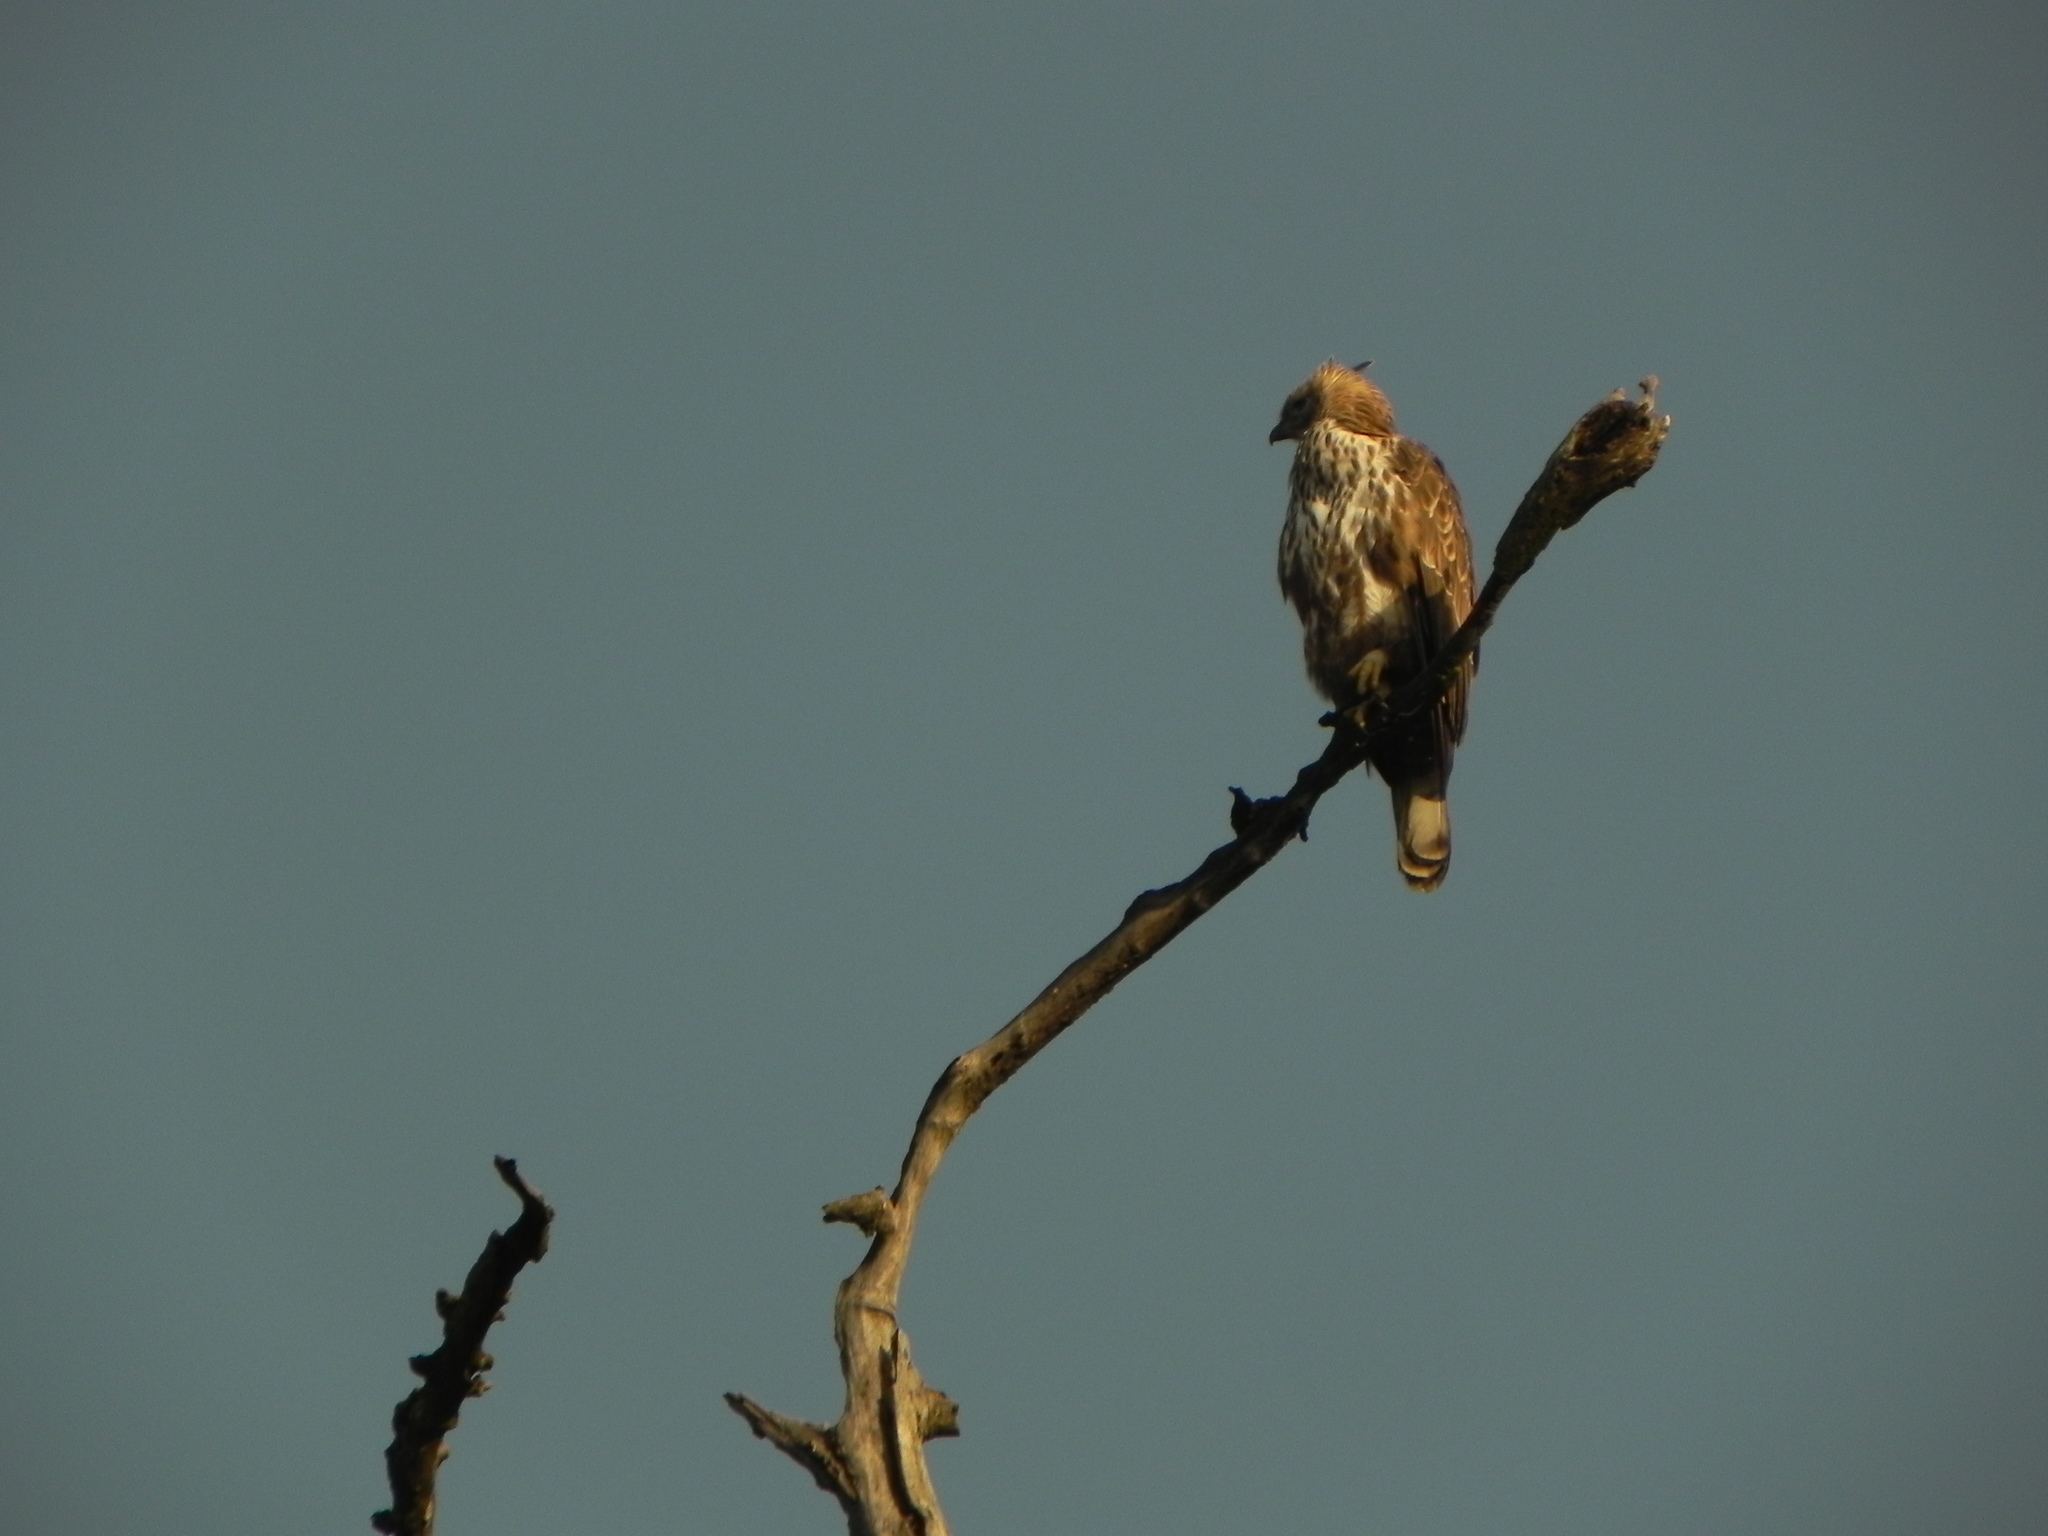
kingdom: Animalia
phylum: Chordata
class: Aves
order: Accipitriformes
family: Accipitridae
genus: Nisaetus
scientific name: Nisaetus cirrhatus
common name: Changeable hawk-eagle
